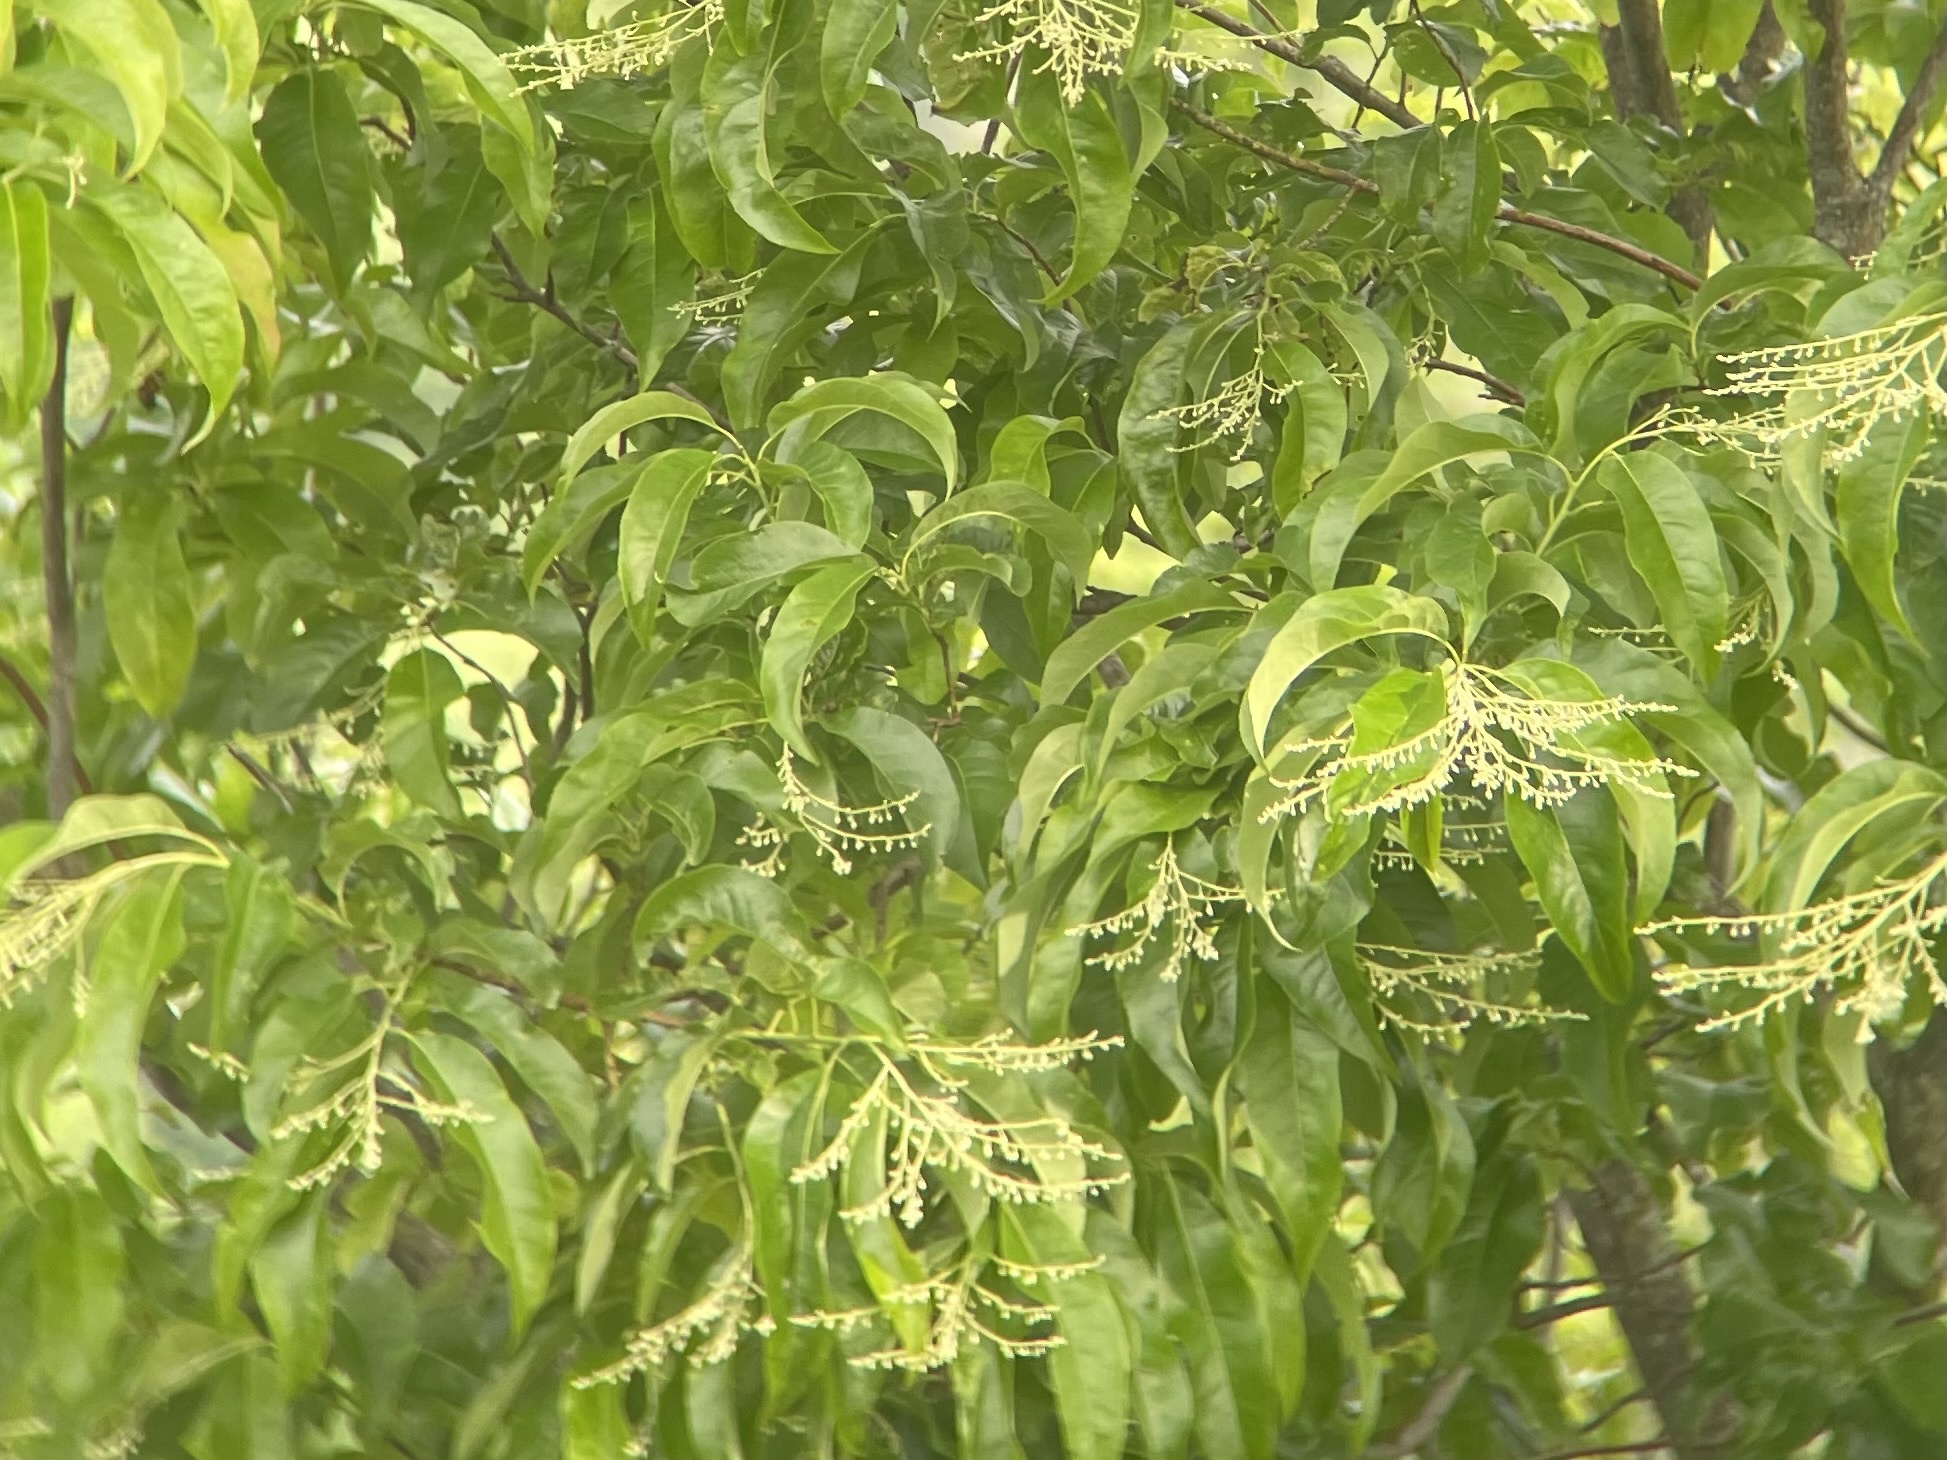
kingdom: Plantae
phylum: Tracheophyta
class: Magnoliopsida
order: Ericales
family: Ericaceae
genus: Oxydendrum
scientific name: Oxydendrum arboreum
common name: Sourwood
